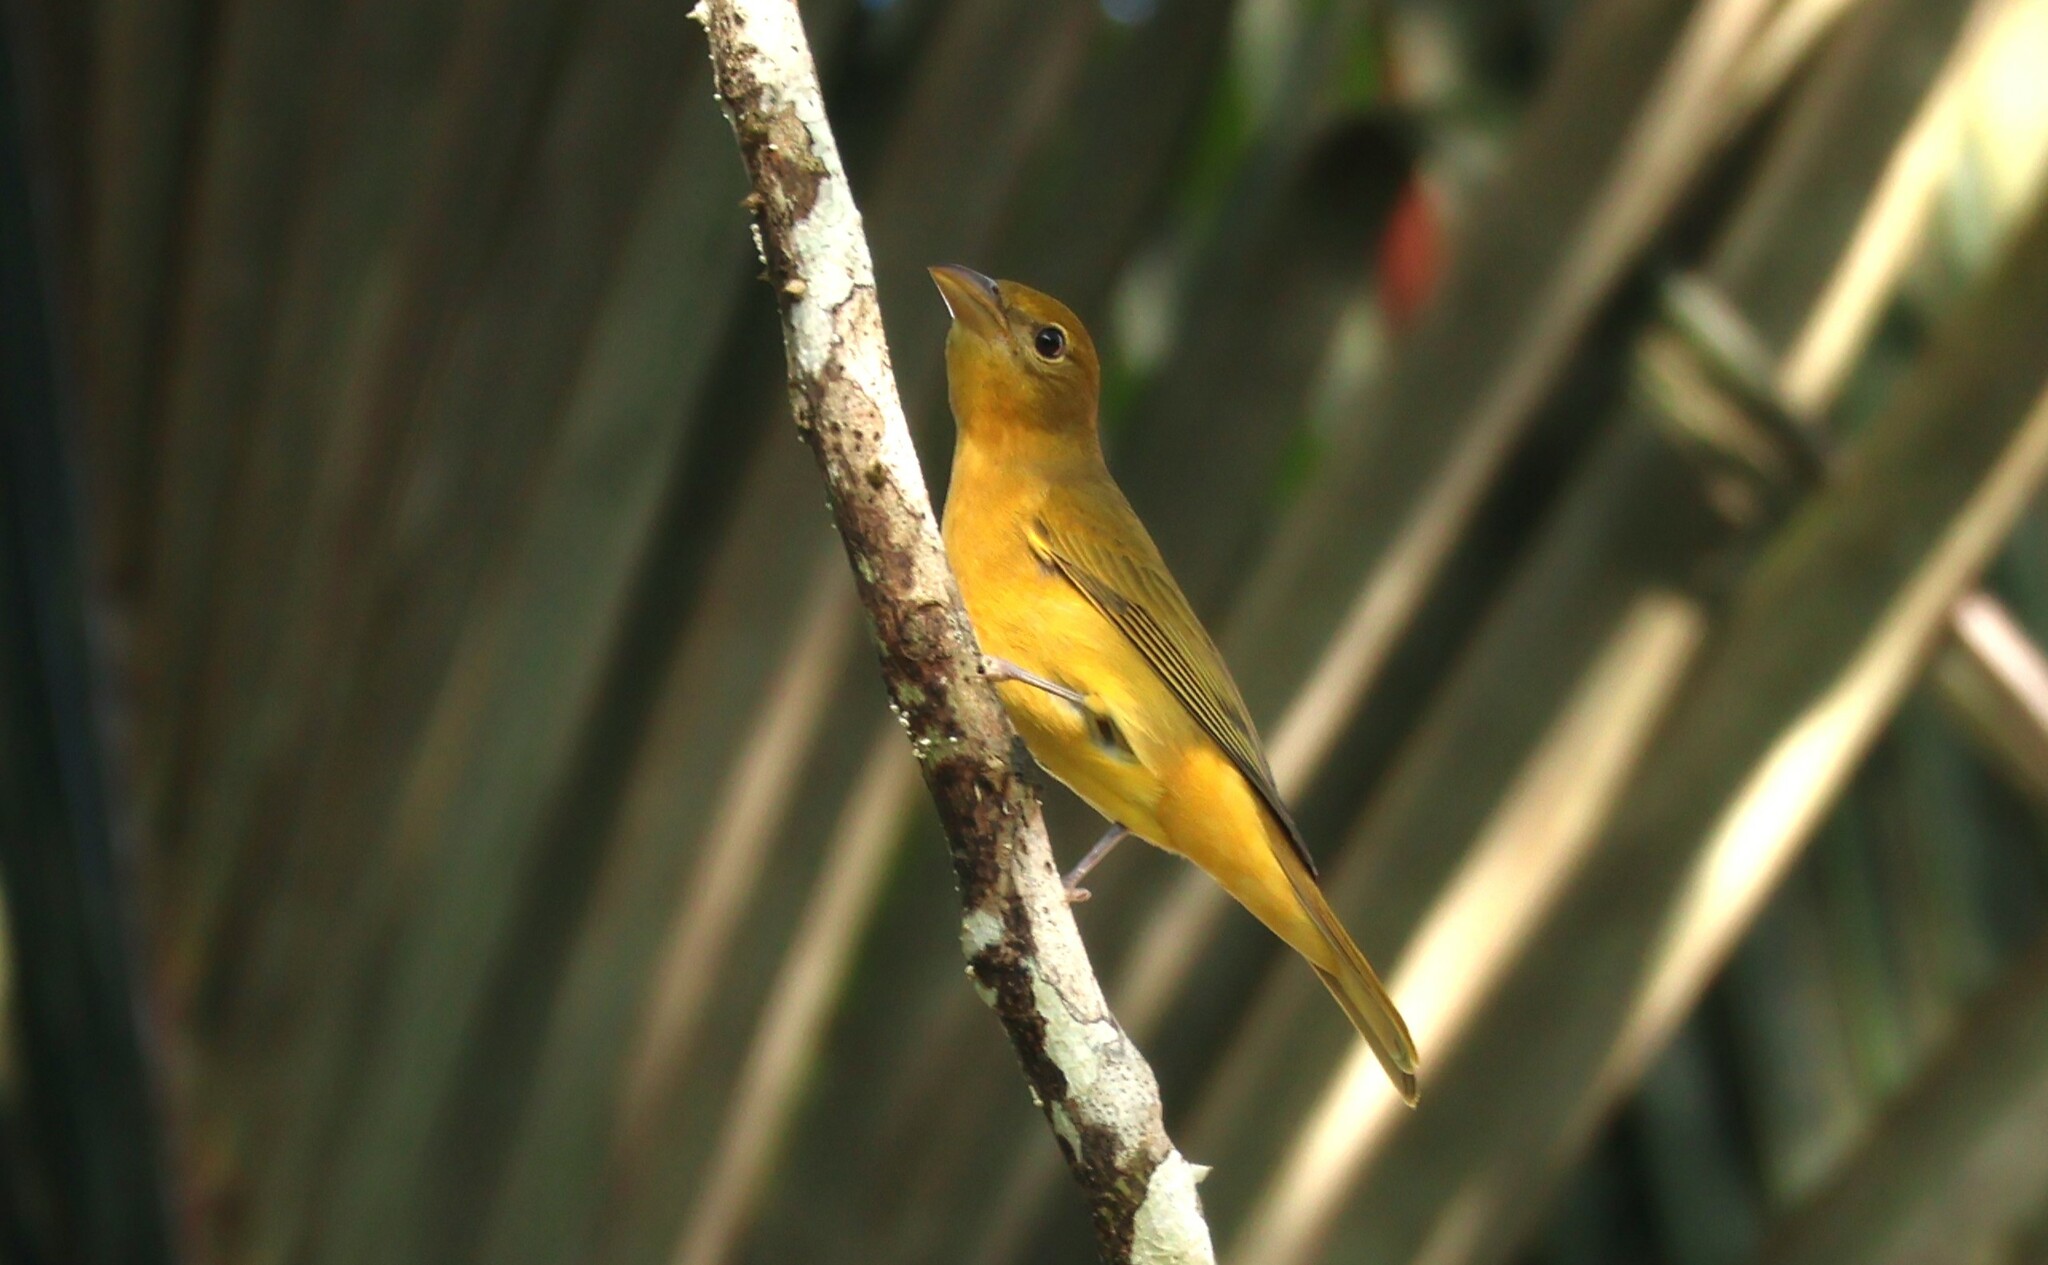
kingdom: Animalia
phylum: Chordata
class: Aves
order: Passeriformes
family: Cardinalidae
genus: Piranga
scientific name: Piranga rubra
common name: Summer tanager
